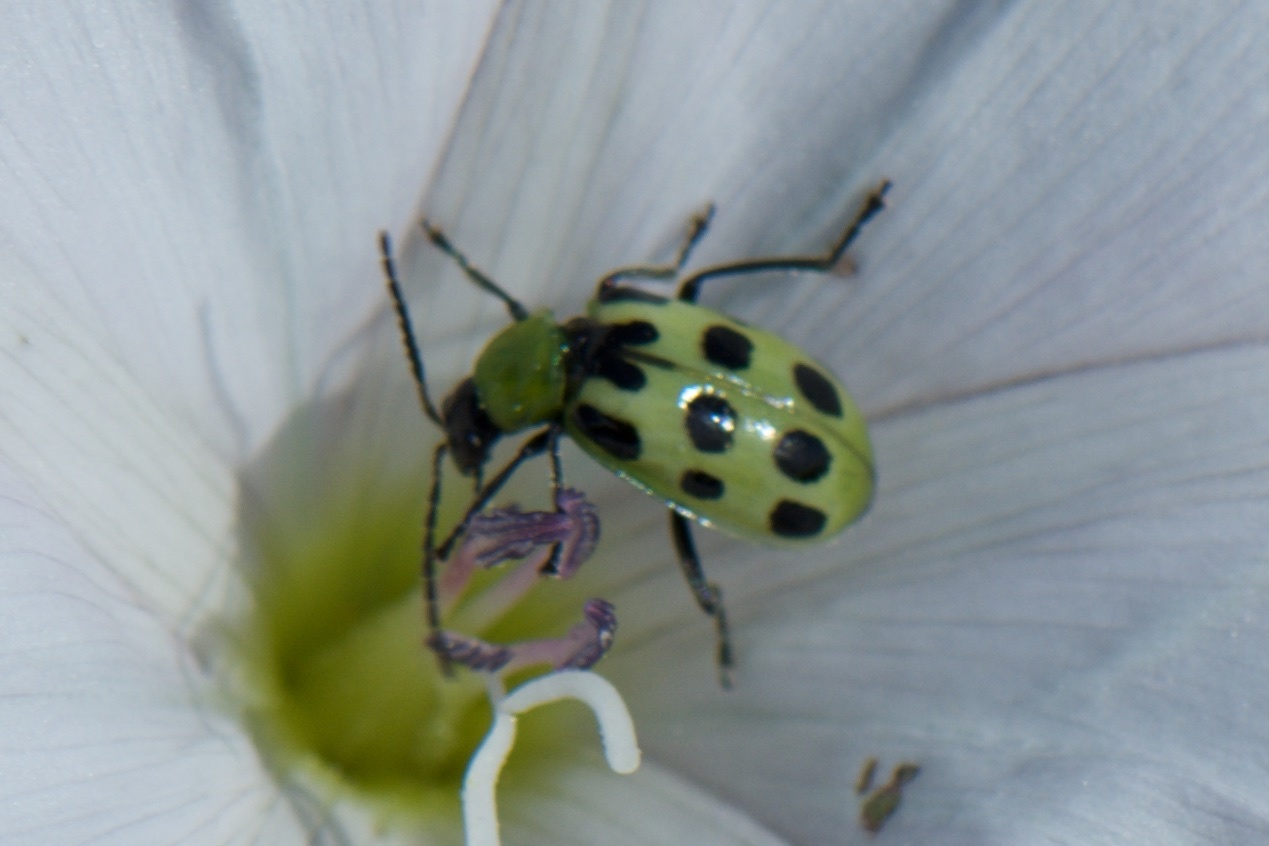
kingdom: Animalia
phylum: Arthropoda
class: Insecta
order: Coleoptera
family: Chrysomelidae
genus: Diabrotica
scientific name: Diabrotica undecimpunctata
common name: Spotted cucumber beetle
